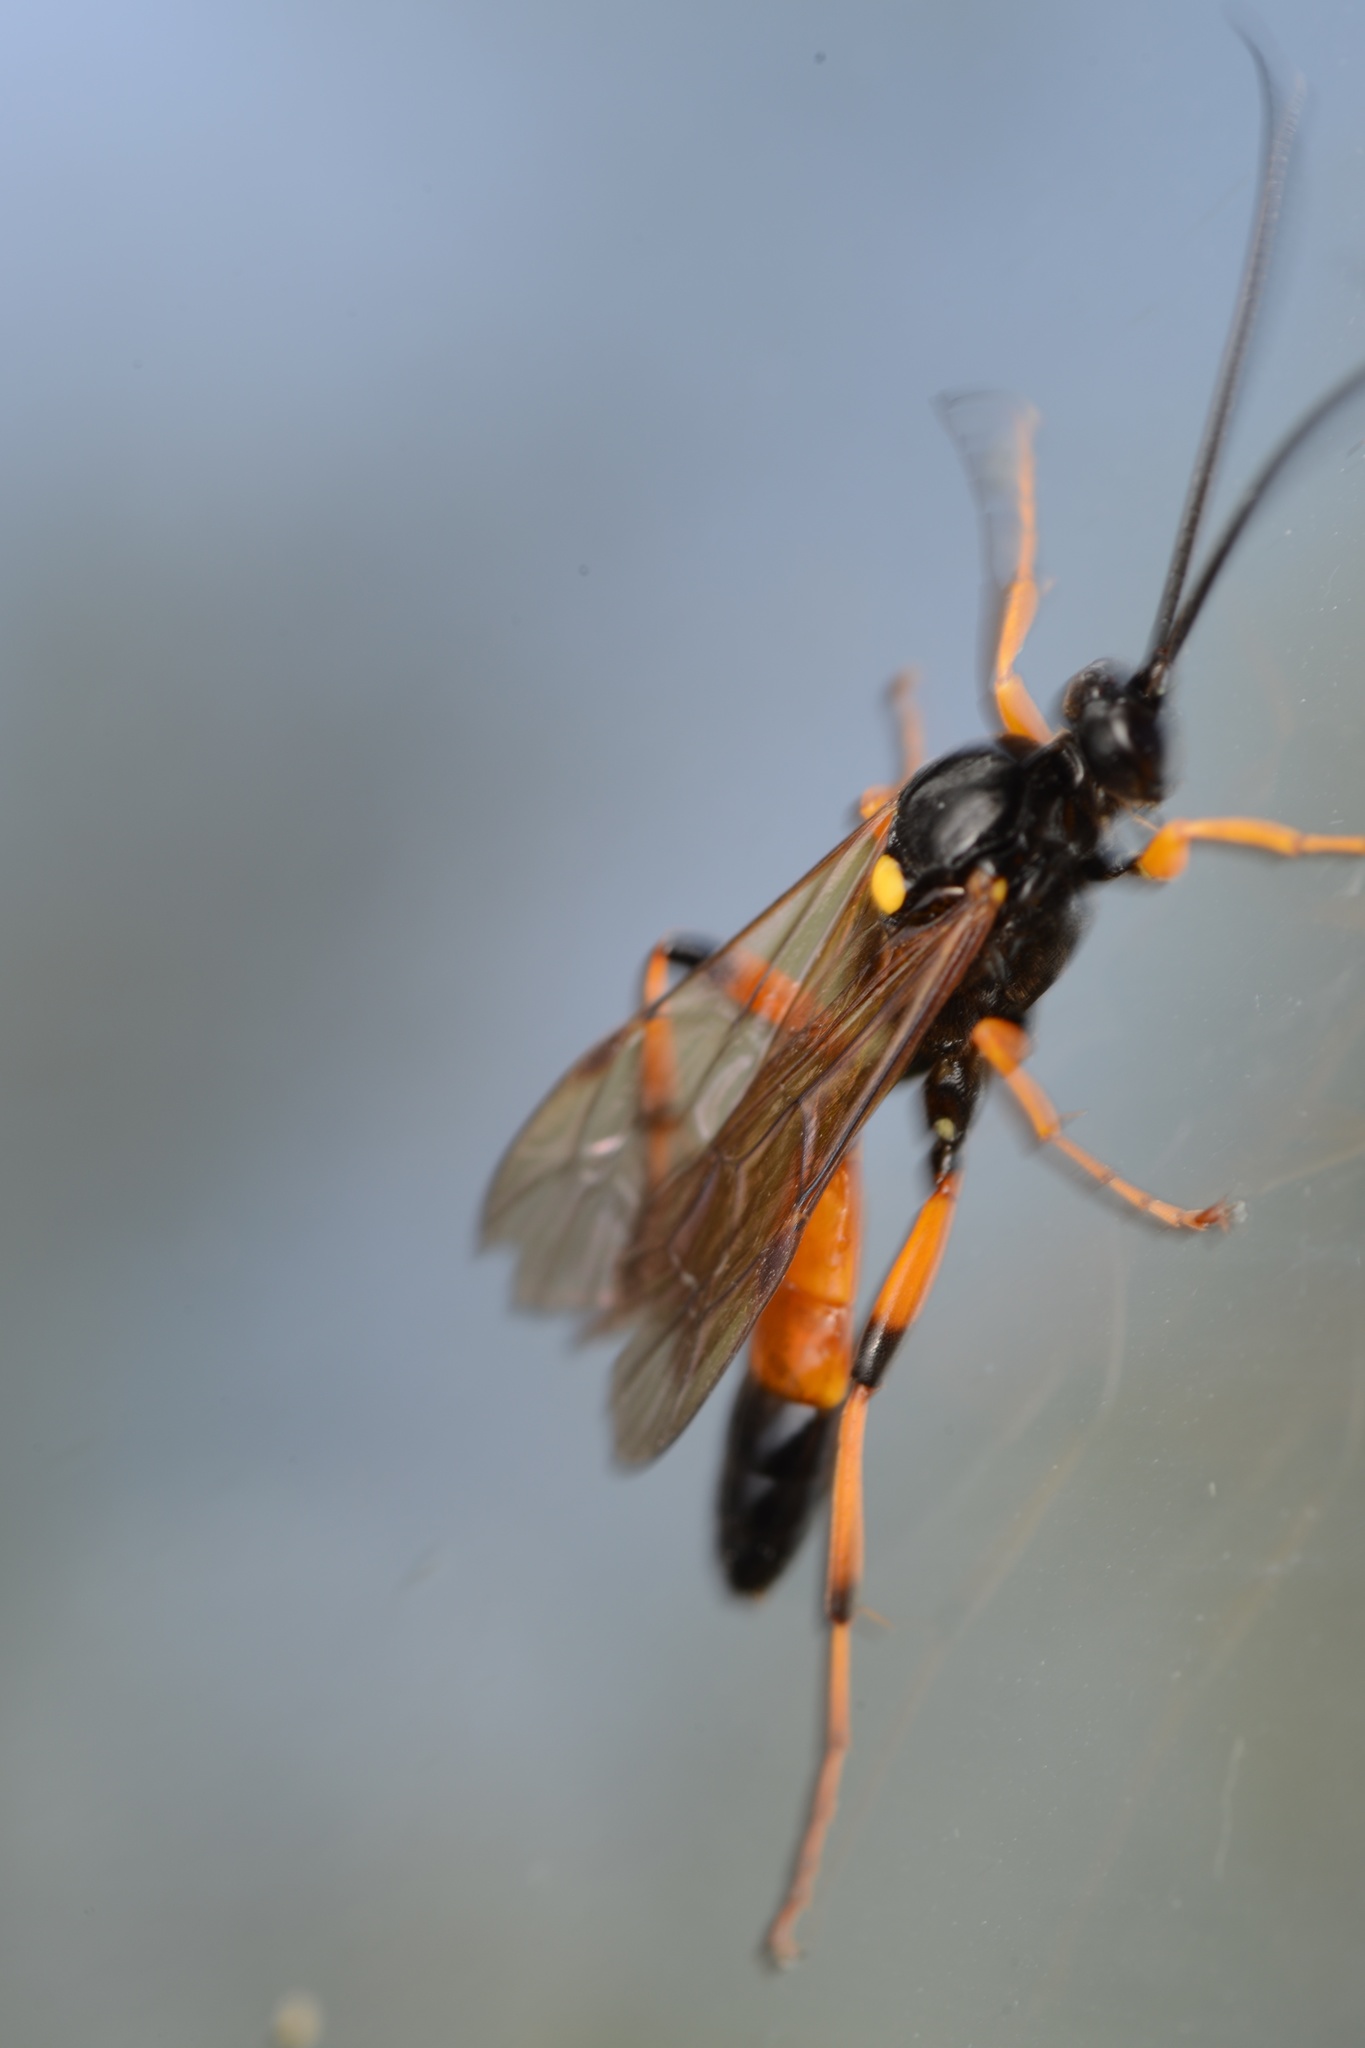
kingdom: Animalia
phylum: Arthropoda
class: Insecta
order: Hymenoptera
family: Ichneumonidae
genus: Ichneumon
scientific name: Ichneumon lotatorius
